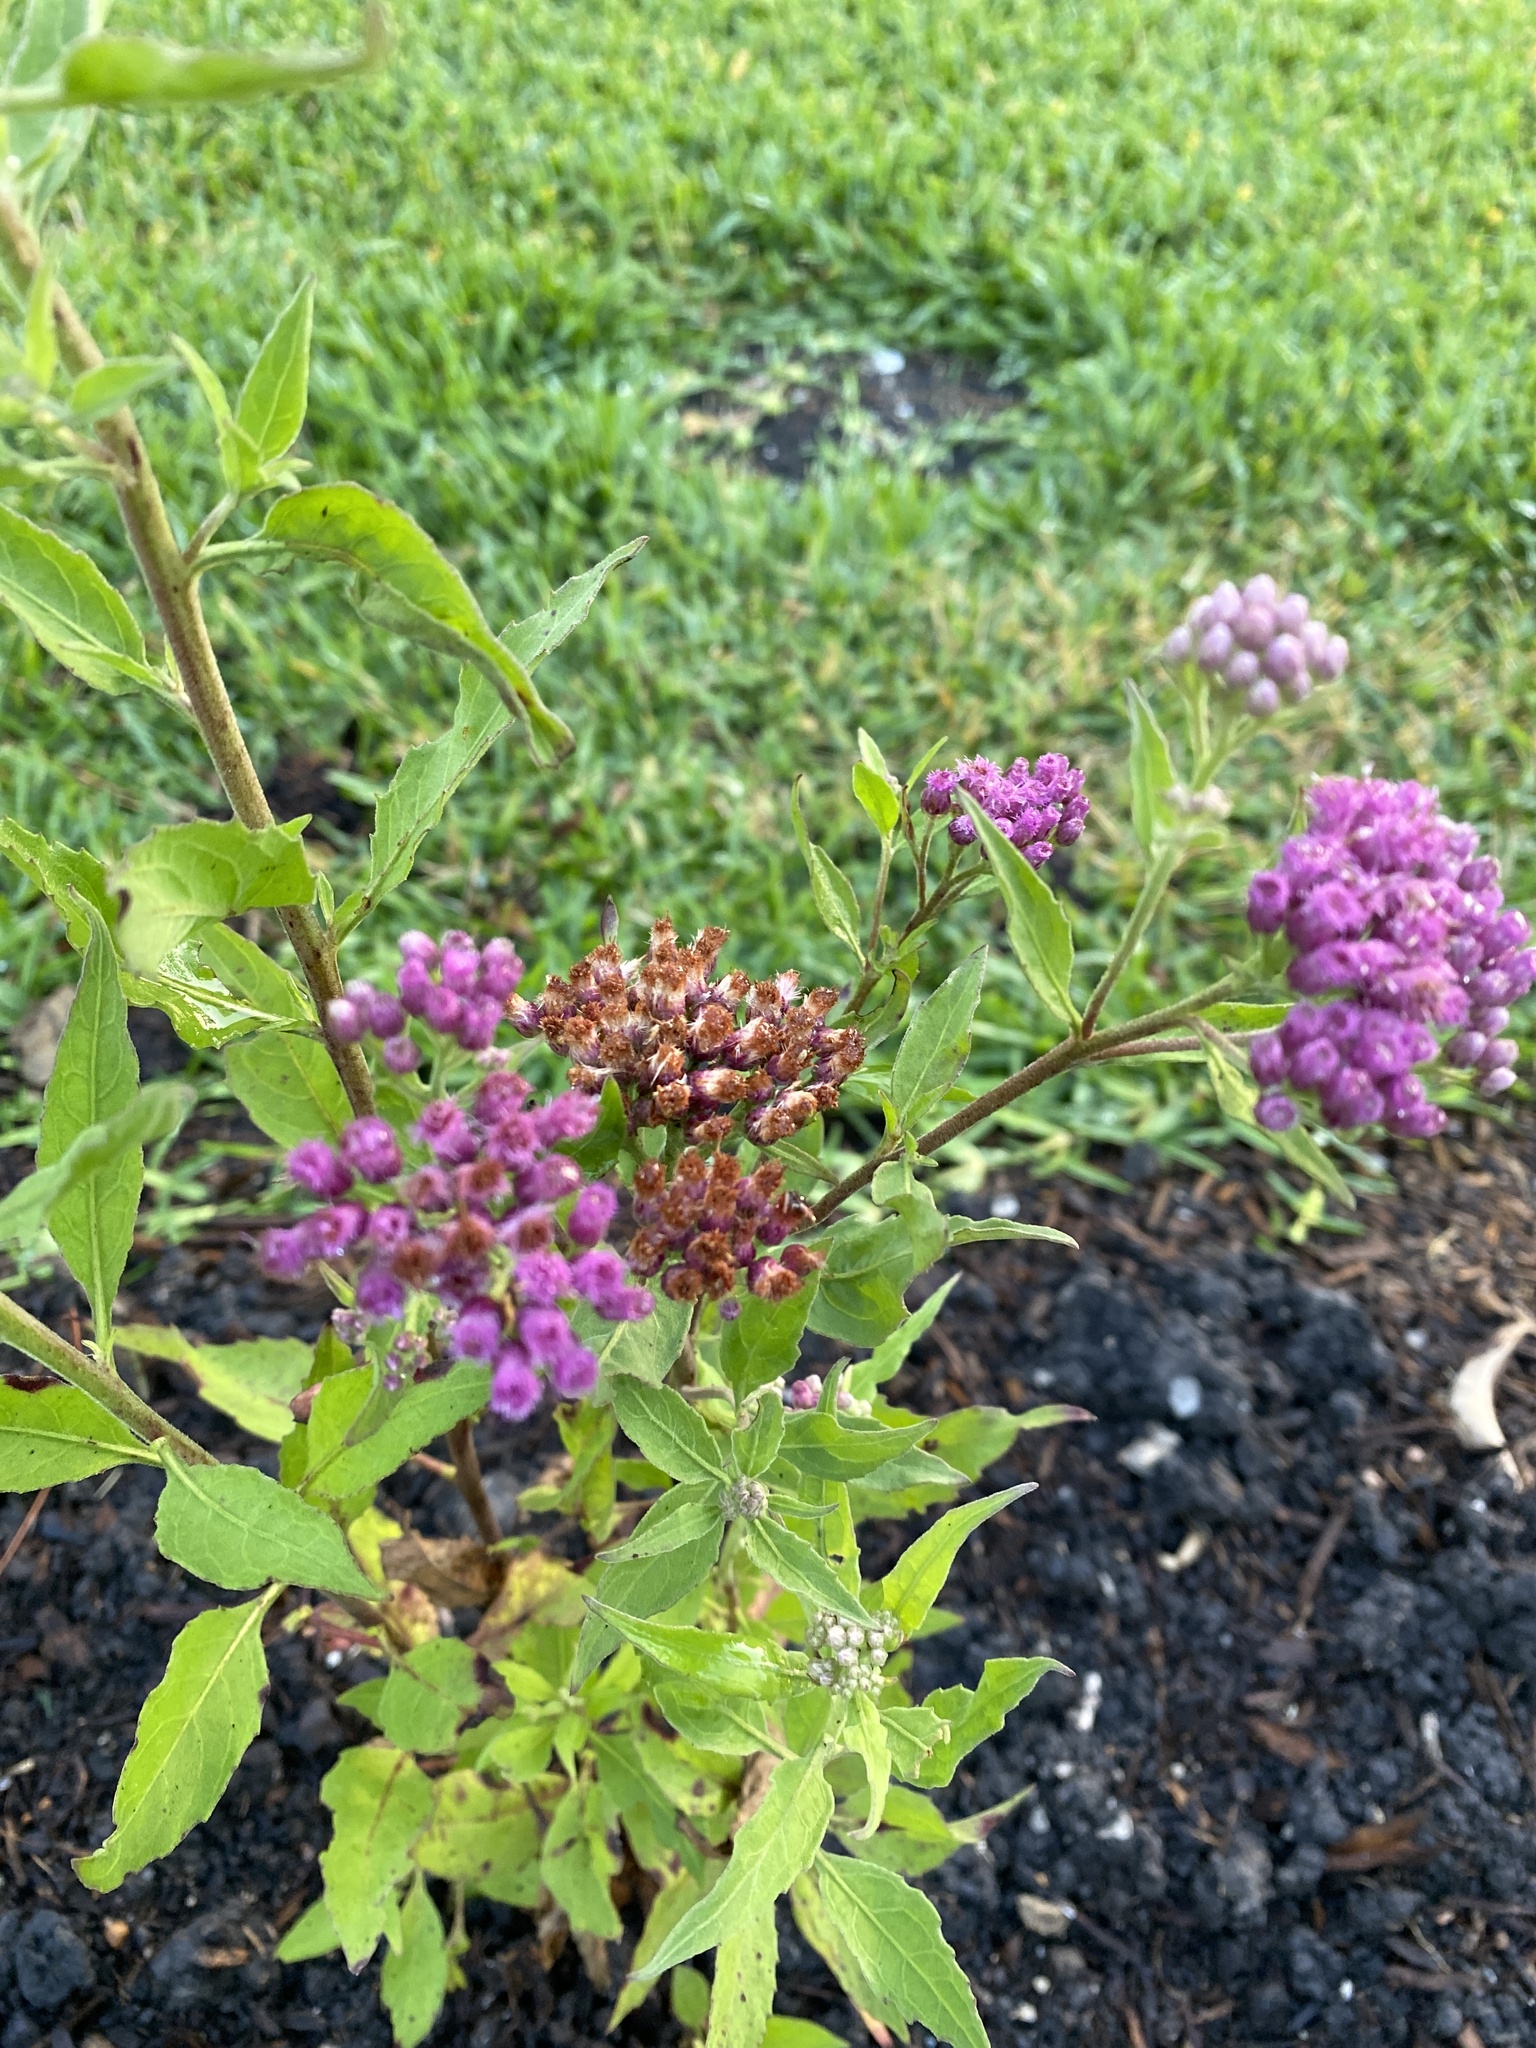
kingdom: Plantae
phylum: Tracheophyta
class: Magnoliopsida
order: Asterales
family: Asteraceae
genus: Pluchea
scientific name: Pluchea odorata
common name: Saltmarsh fleabane
